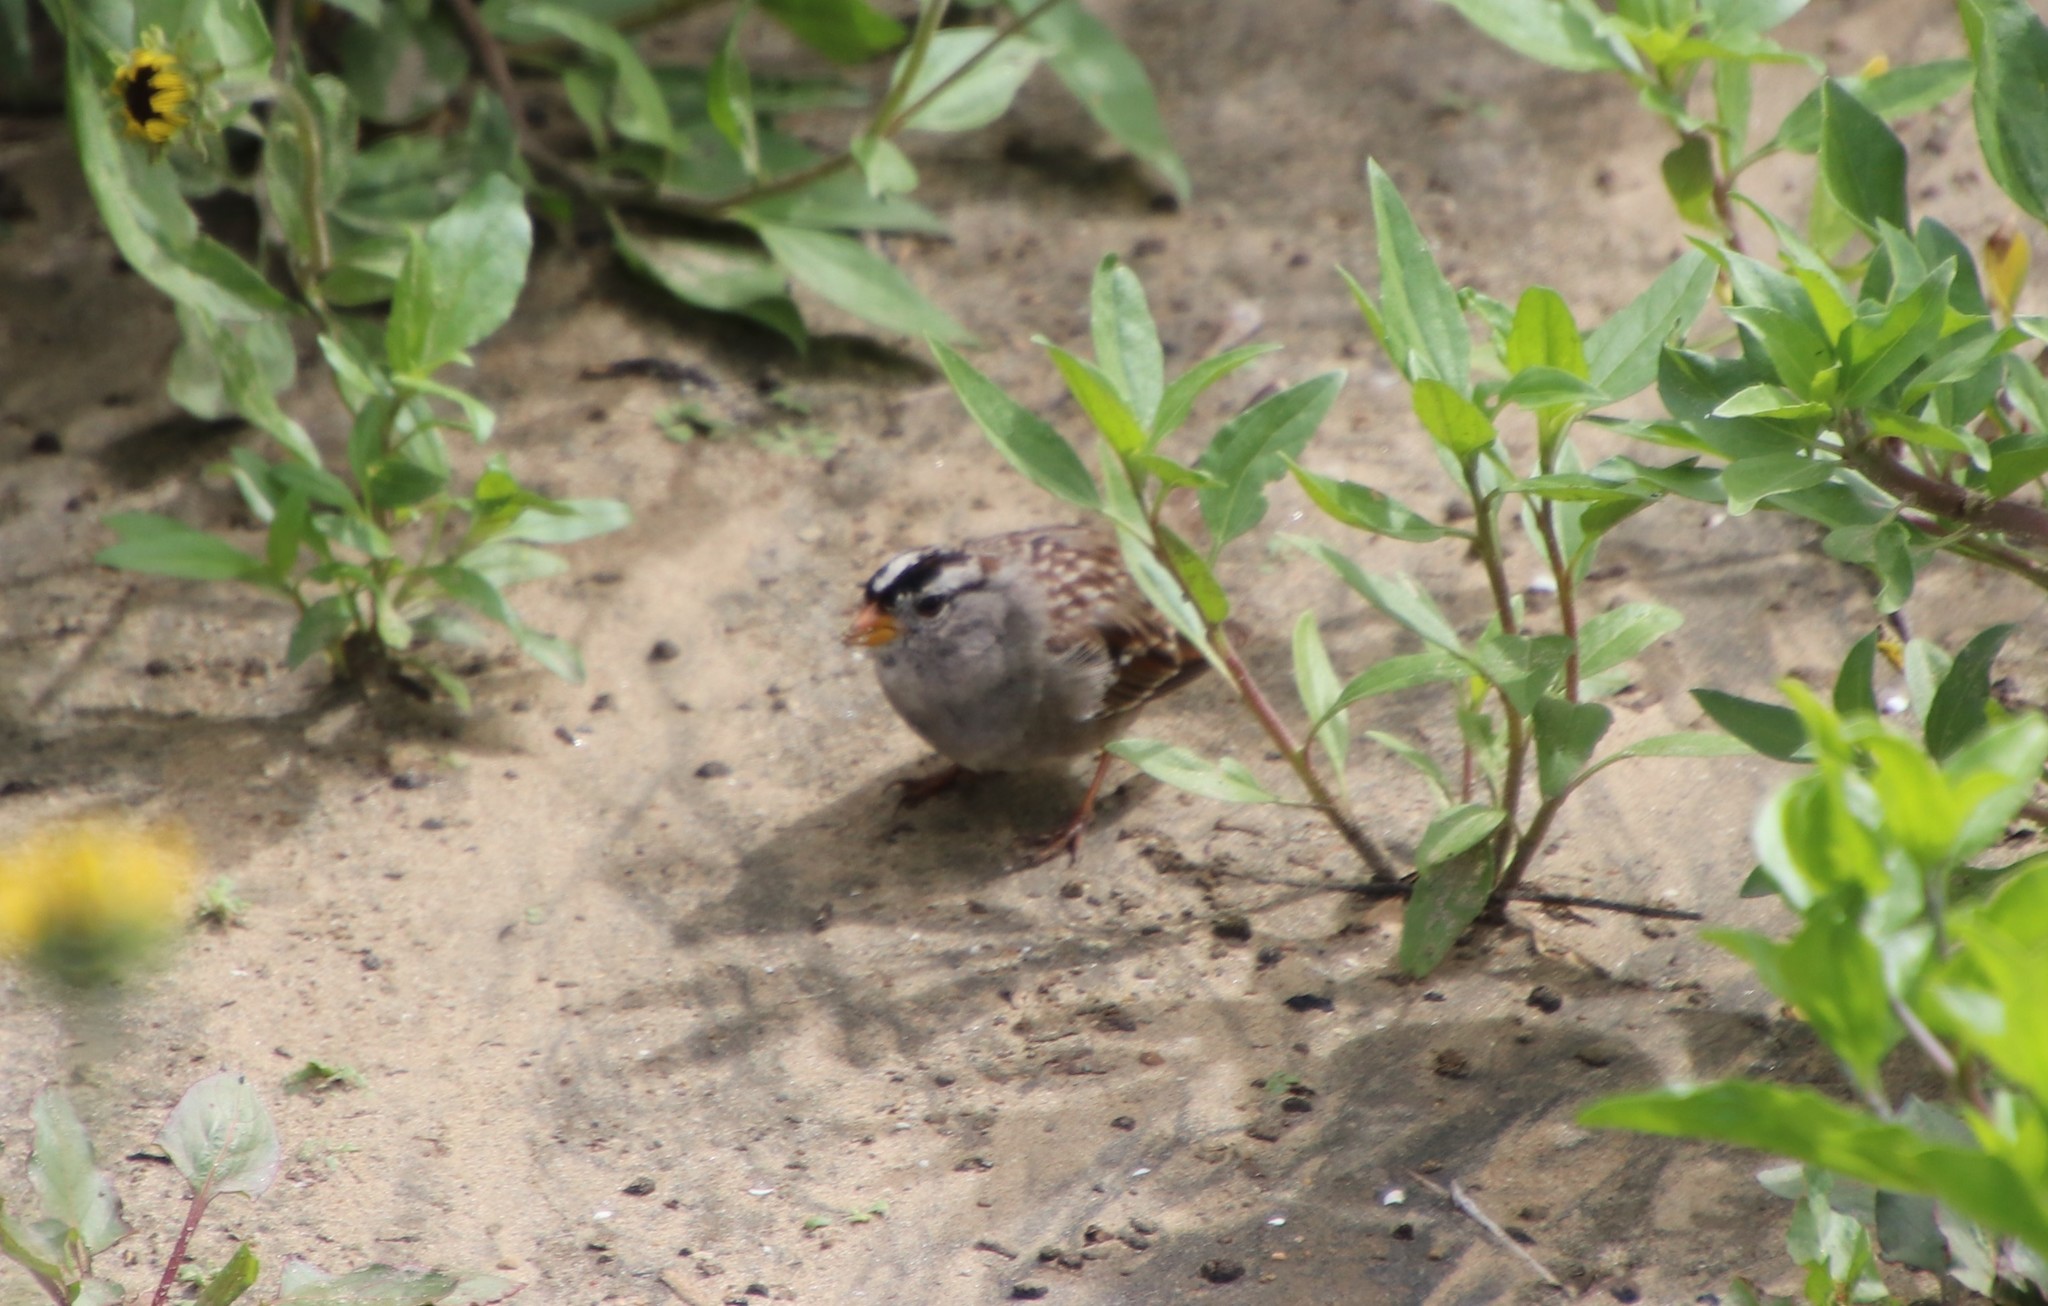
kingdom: Animalia
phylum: Chordata
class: Aves
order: Passeriformes
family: Passerellidae
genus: Zonotrichia
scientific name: Zonotrichia leucophrys
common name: White-crowned sparrow
